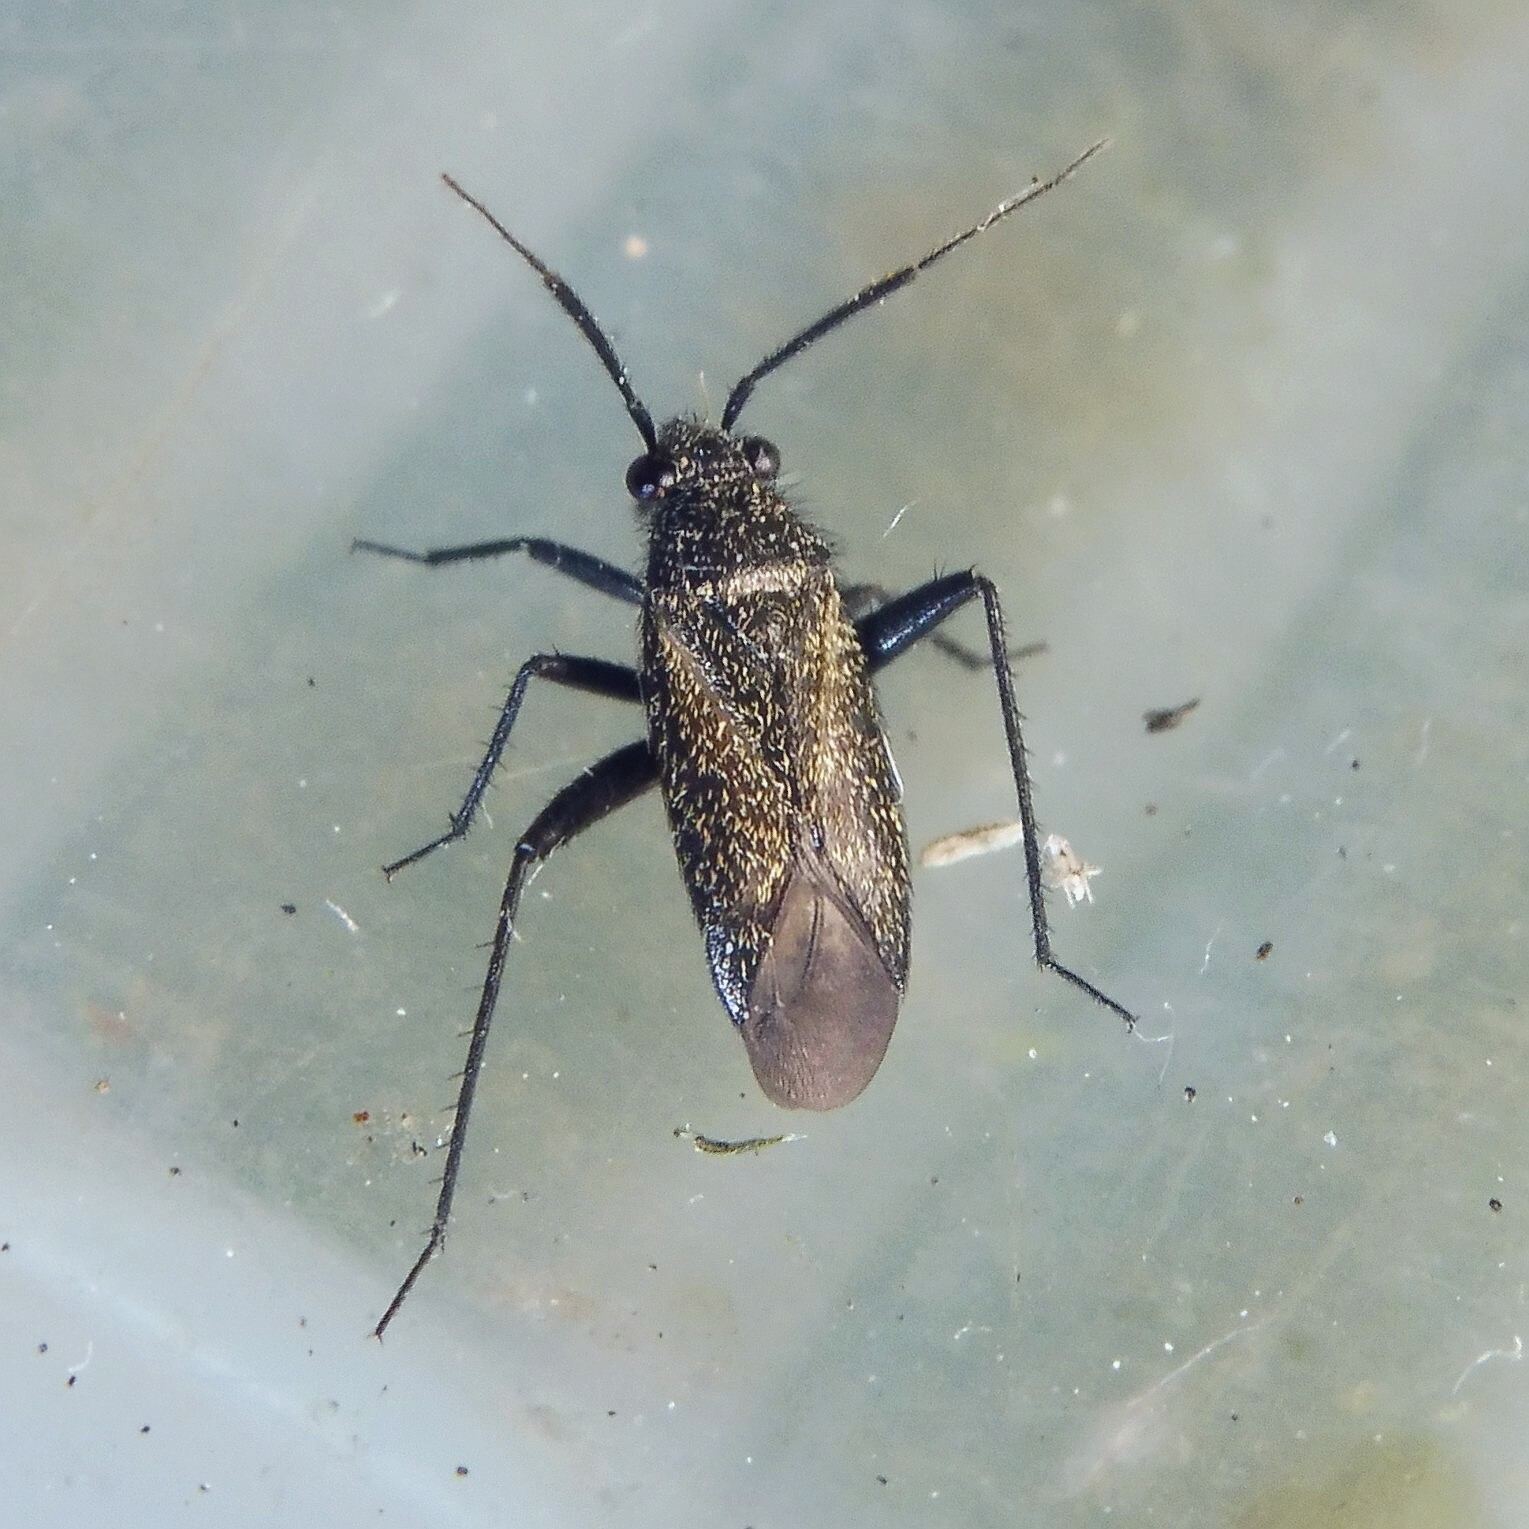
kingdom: Animalia
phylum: Arthropoda
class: Insecta
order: Hemiptera
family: Miridae
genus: Orthocephalus
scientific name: Orthocephalus coriaceus
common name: Plant bug
